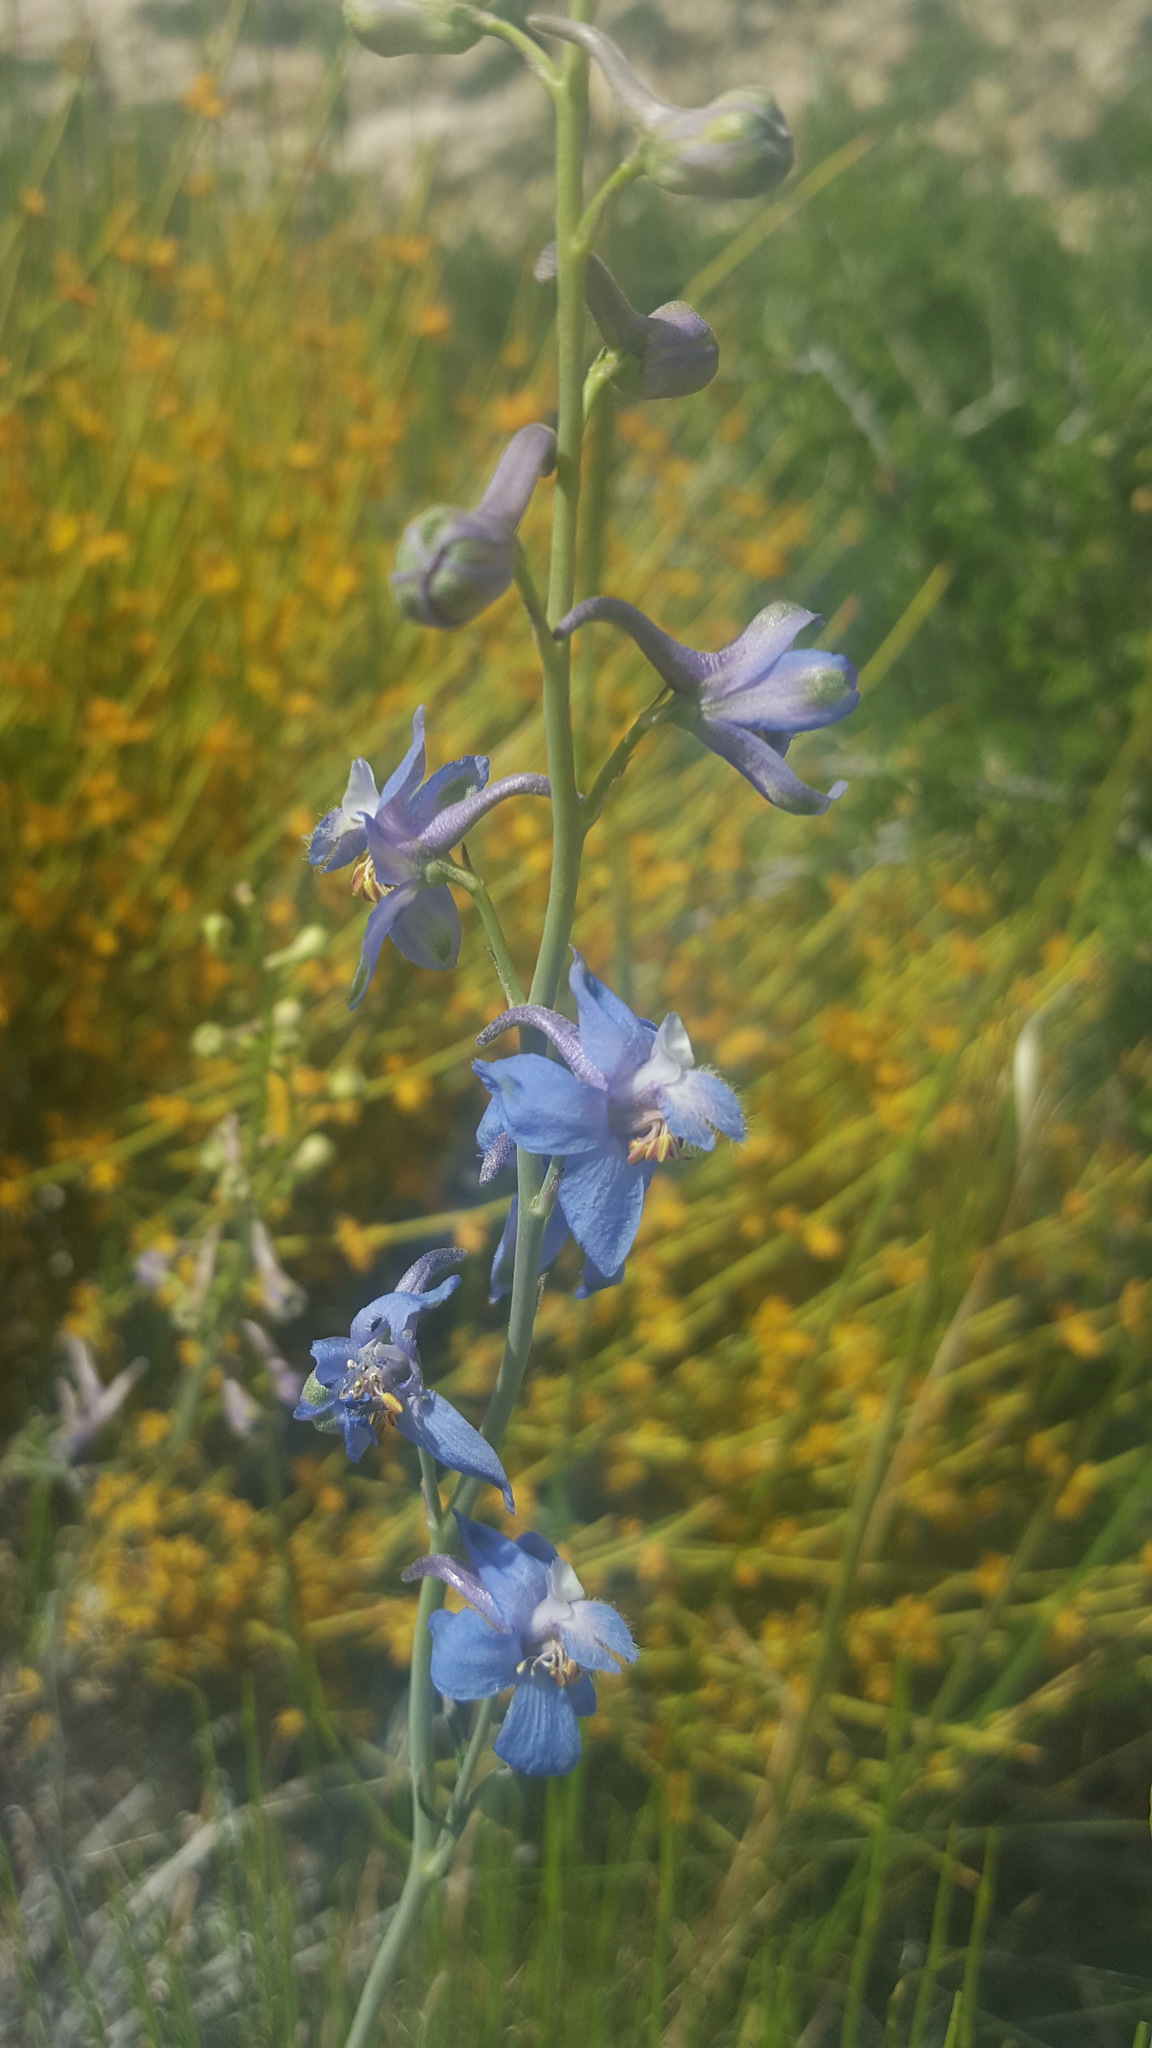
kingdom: Plantae
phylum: Tracheophyta
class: Magnoliopsida
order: Ranunculales
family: Ranunculaceae
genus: Delphinium
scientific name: Delphinium parishii
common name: Apache larkspur
